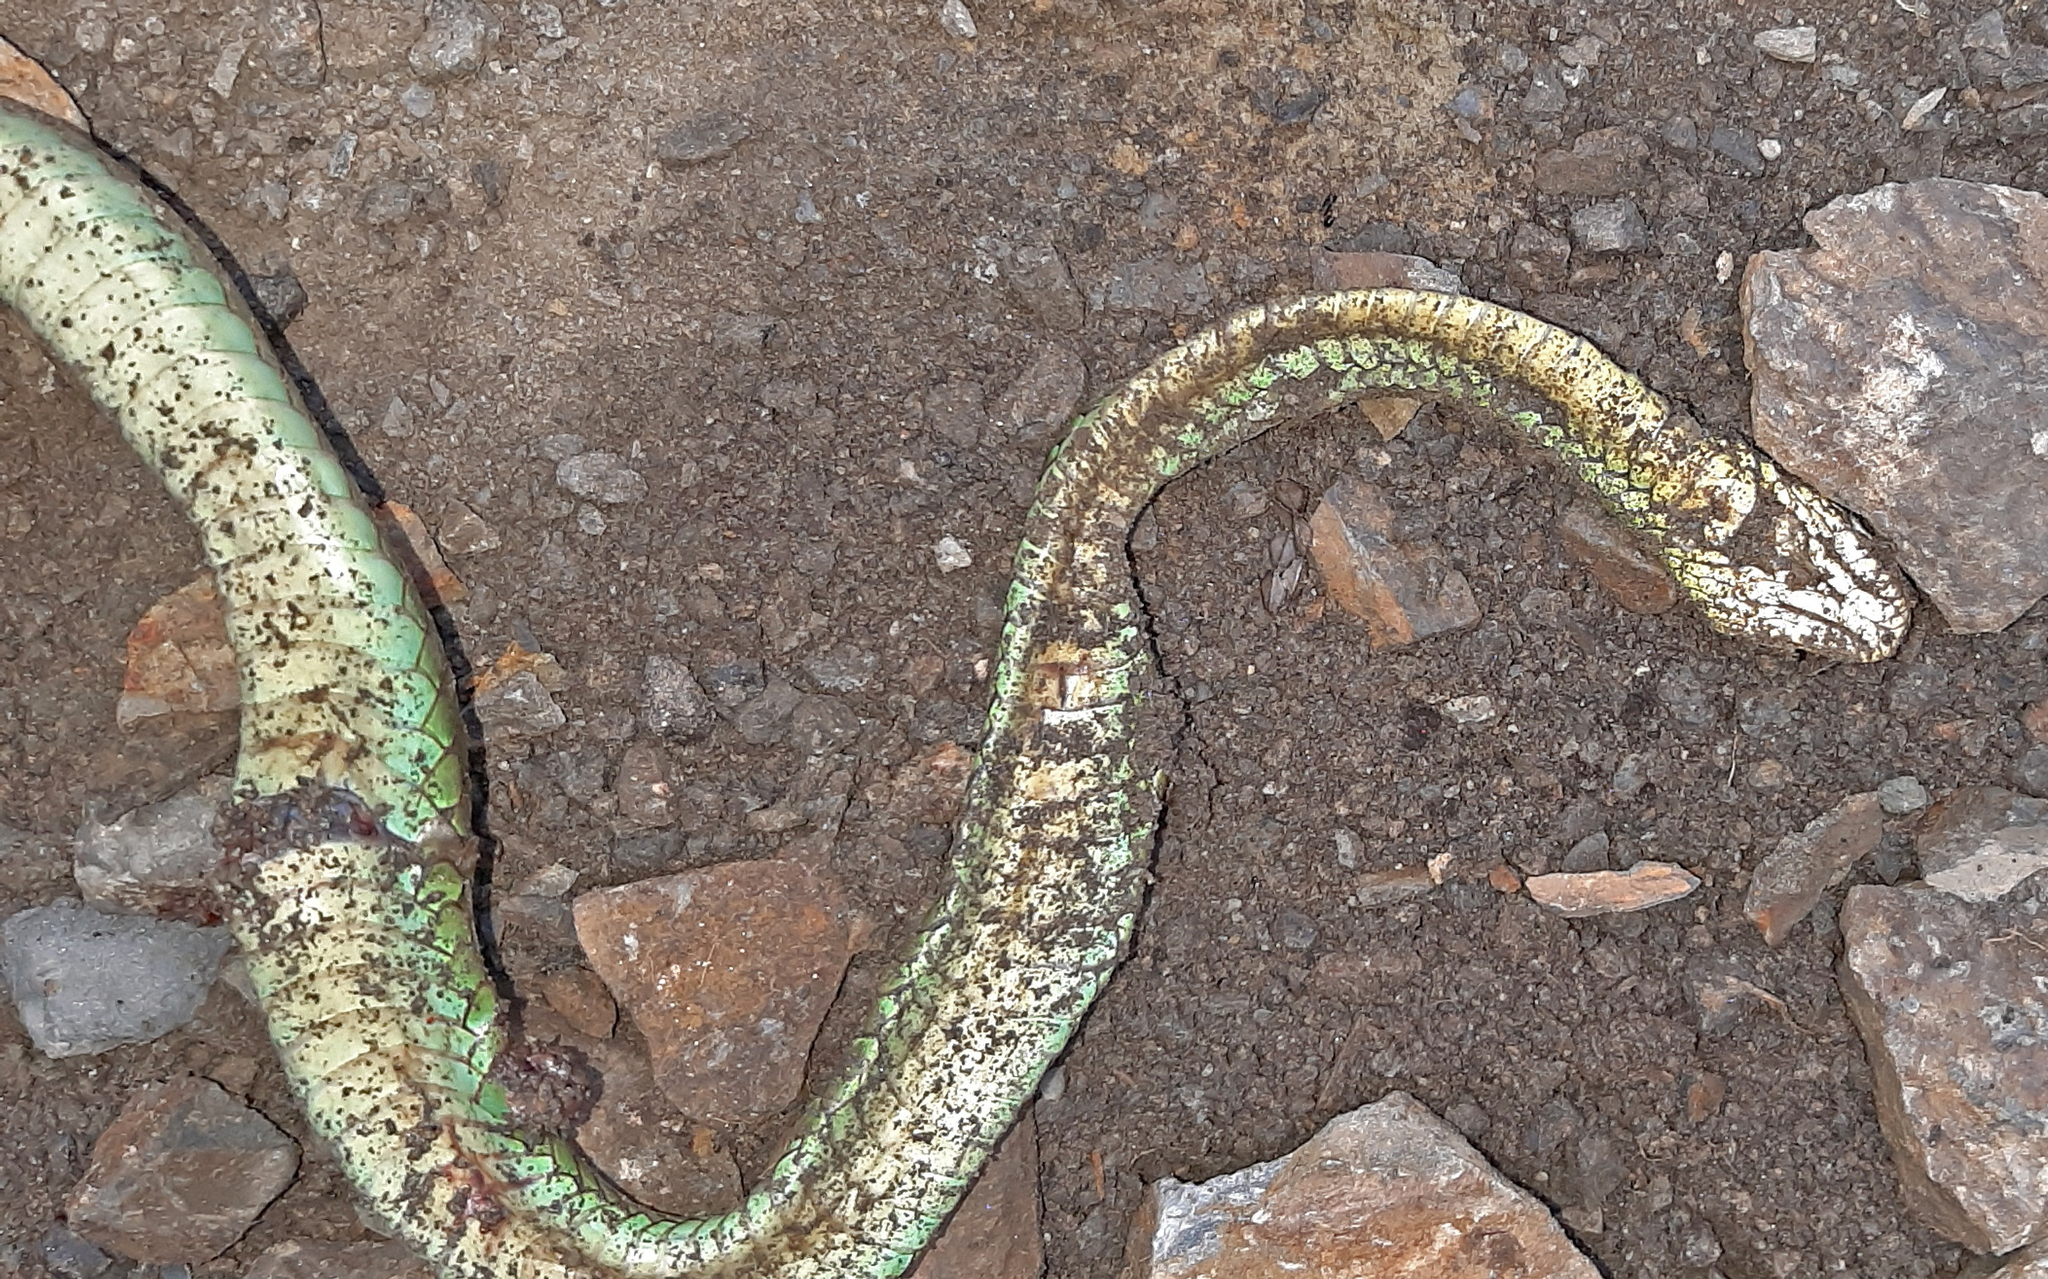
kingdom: Animalia
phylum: Chordata
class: Squamata
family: Colubridae
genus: Chironius
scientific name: Chironius monticola
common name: Mountain sipo
